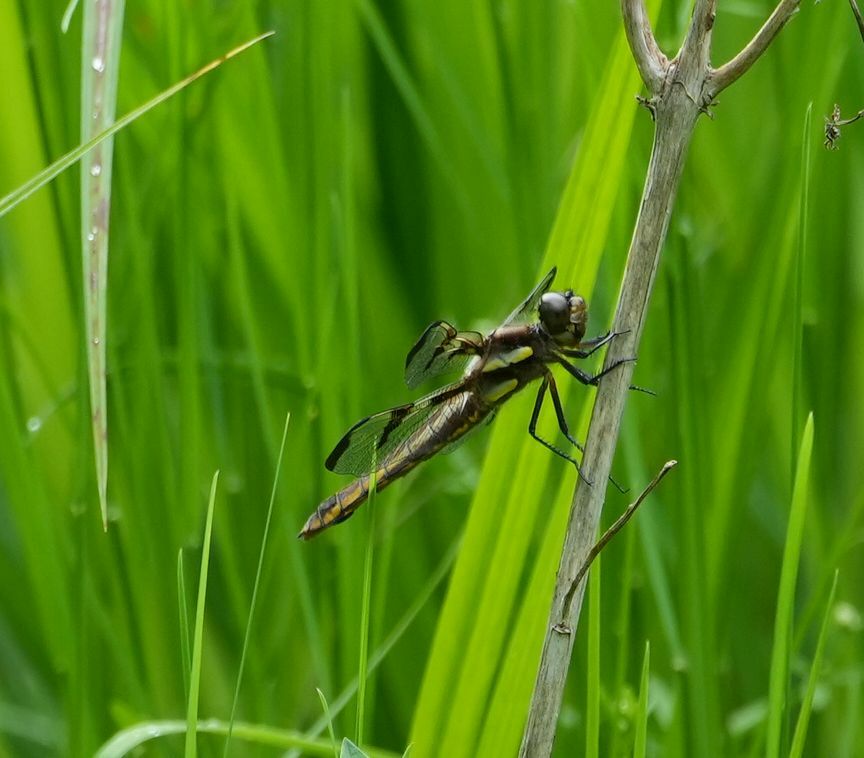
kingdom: Animalia
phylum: Arthropoda
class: Insecta
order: Odonata
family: Libellulidae
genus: Libellula
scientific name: Libellula pulchella
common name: Twelve-spotted skimmer
